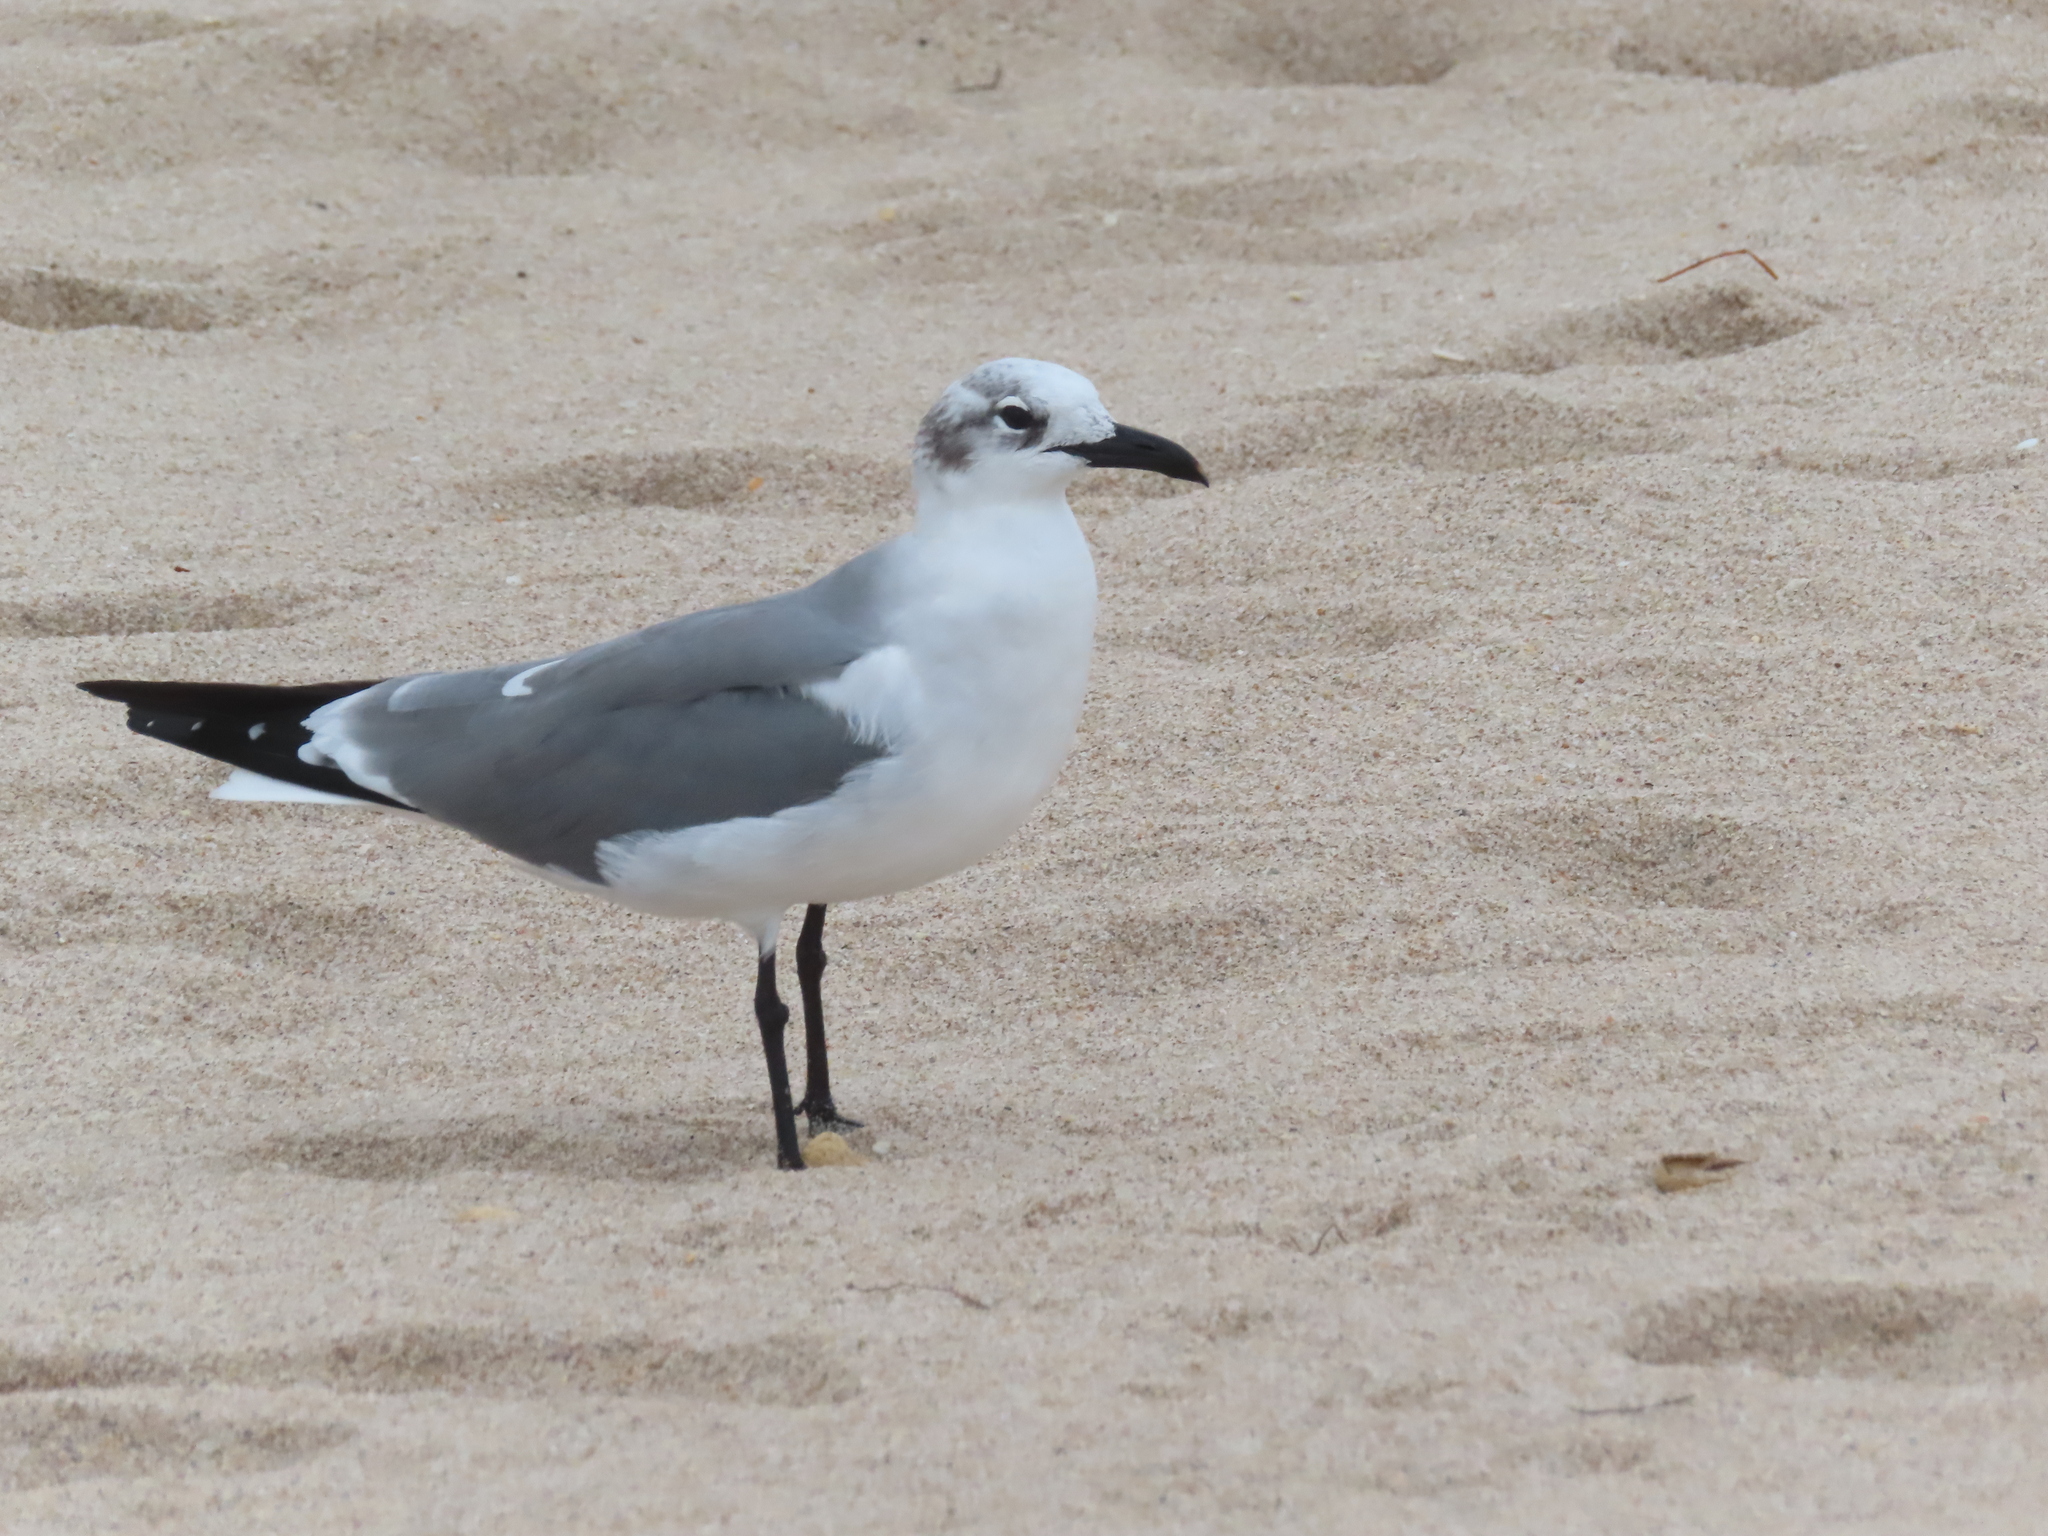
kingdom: Animalia
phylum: Chordata
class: Aves
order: Charadriiformes
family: Laridae
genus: Leucophaeus
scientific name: Leucophaeus atricilla
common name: Laughing gull
